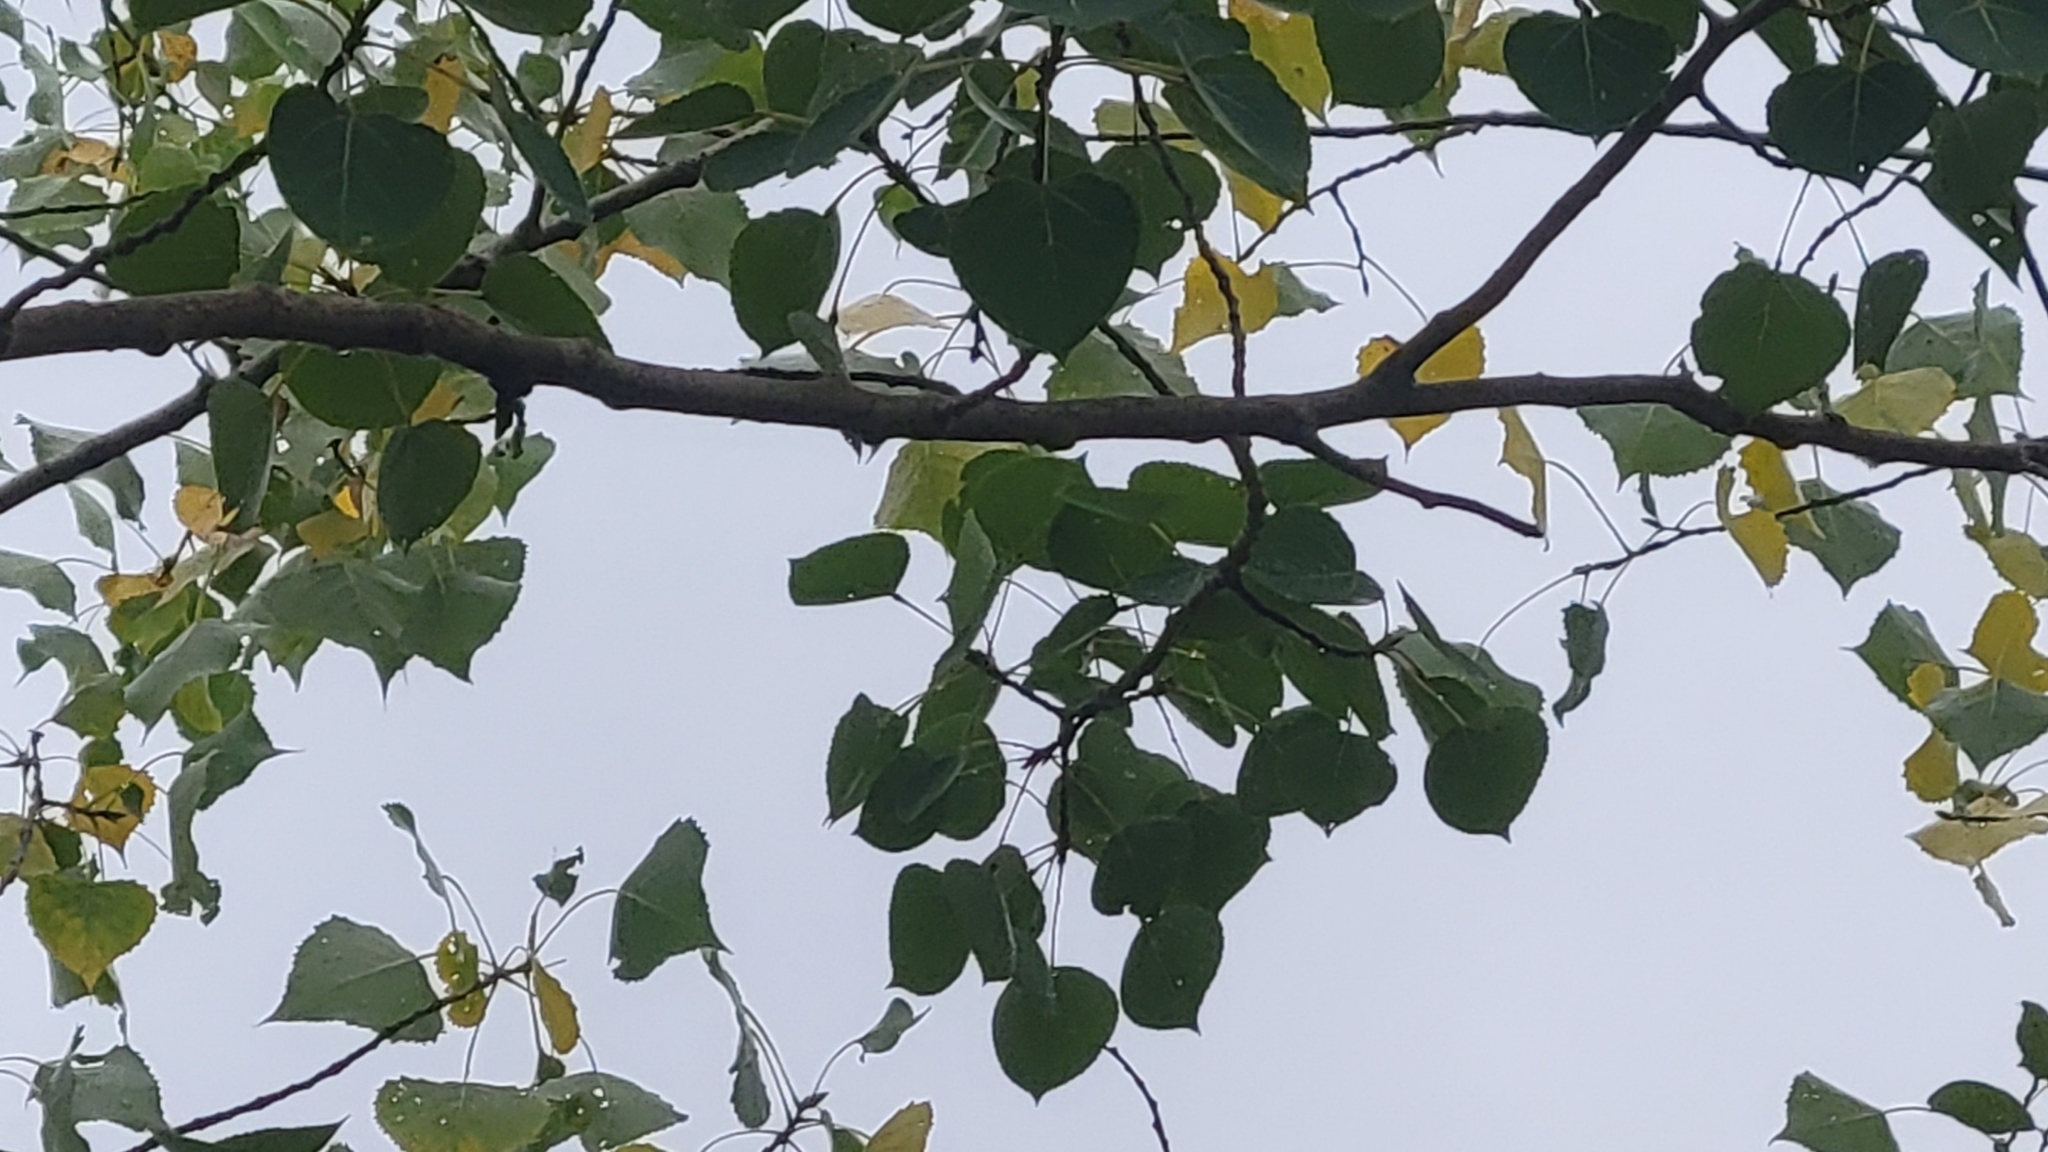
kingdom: Plantae
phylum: Tracheophyta
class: Magnoliopsida
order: Malpighiales
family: Salicaceae
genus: Populus
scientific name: Populus tremuloides
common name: Quaking aspen
